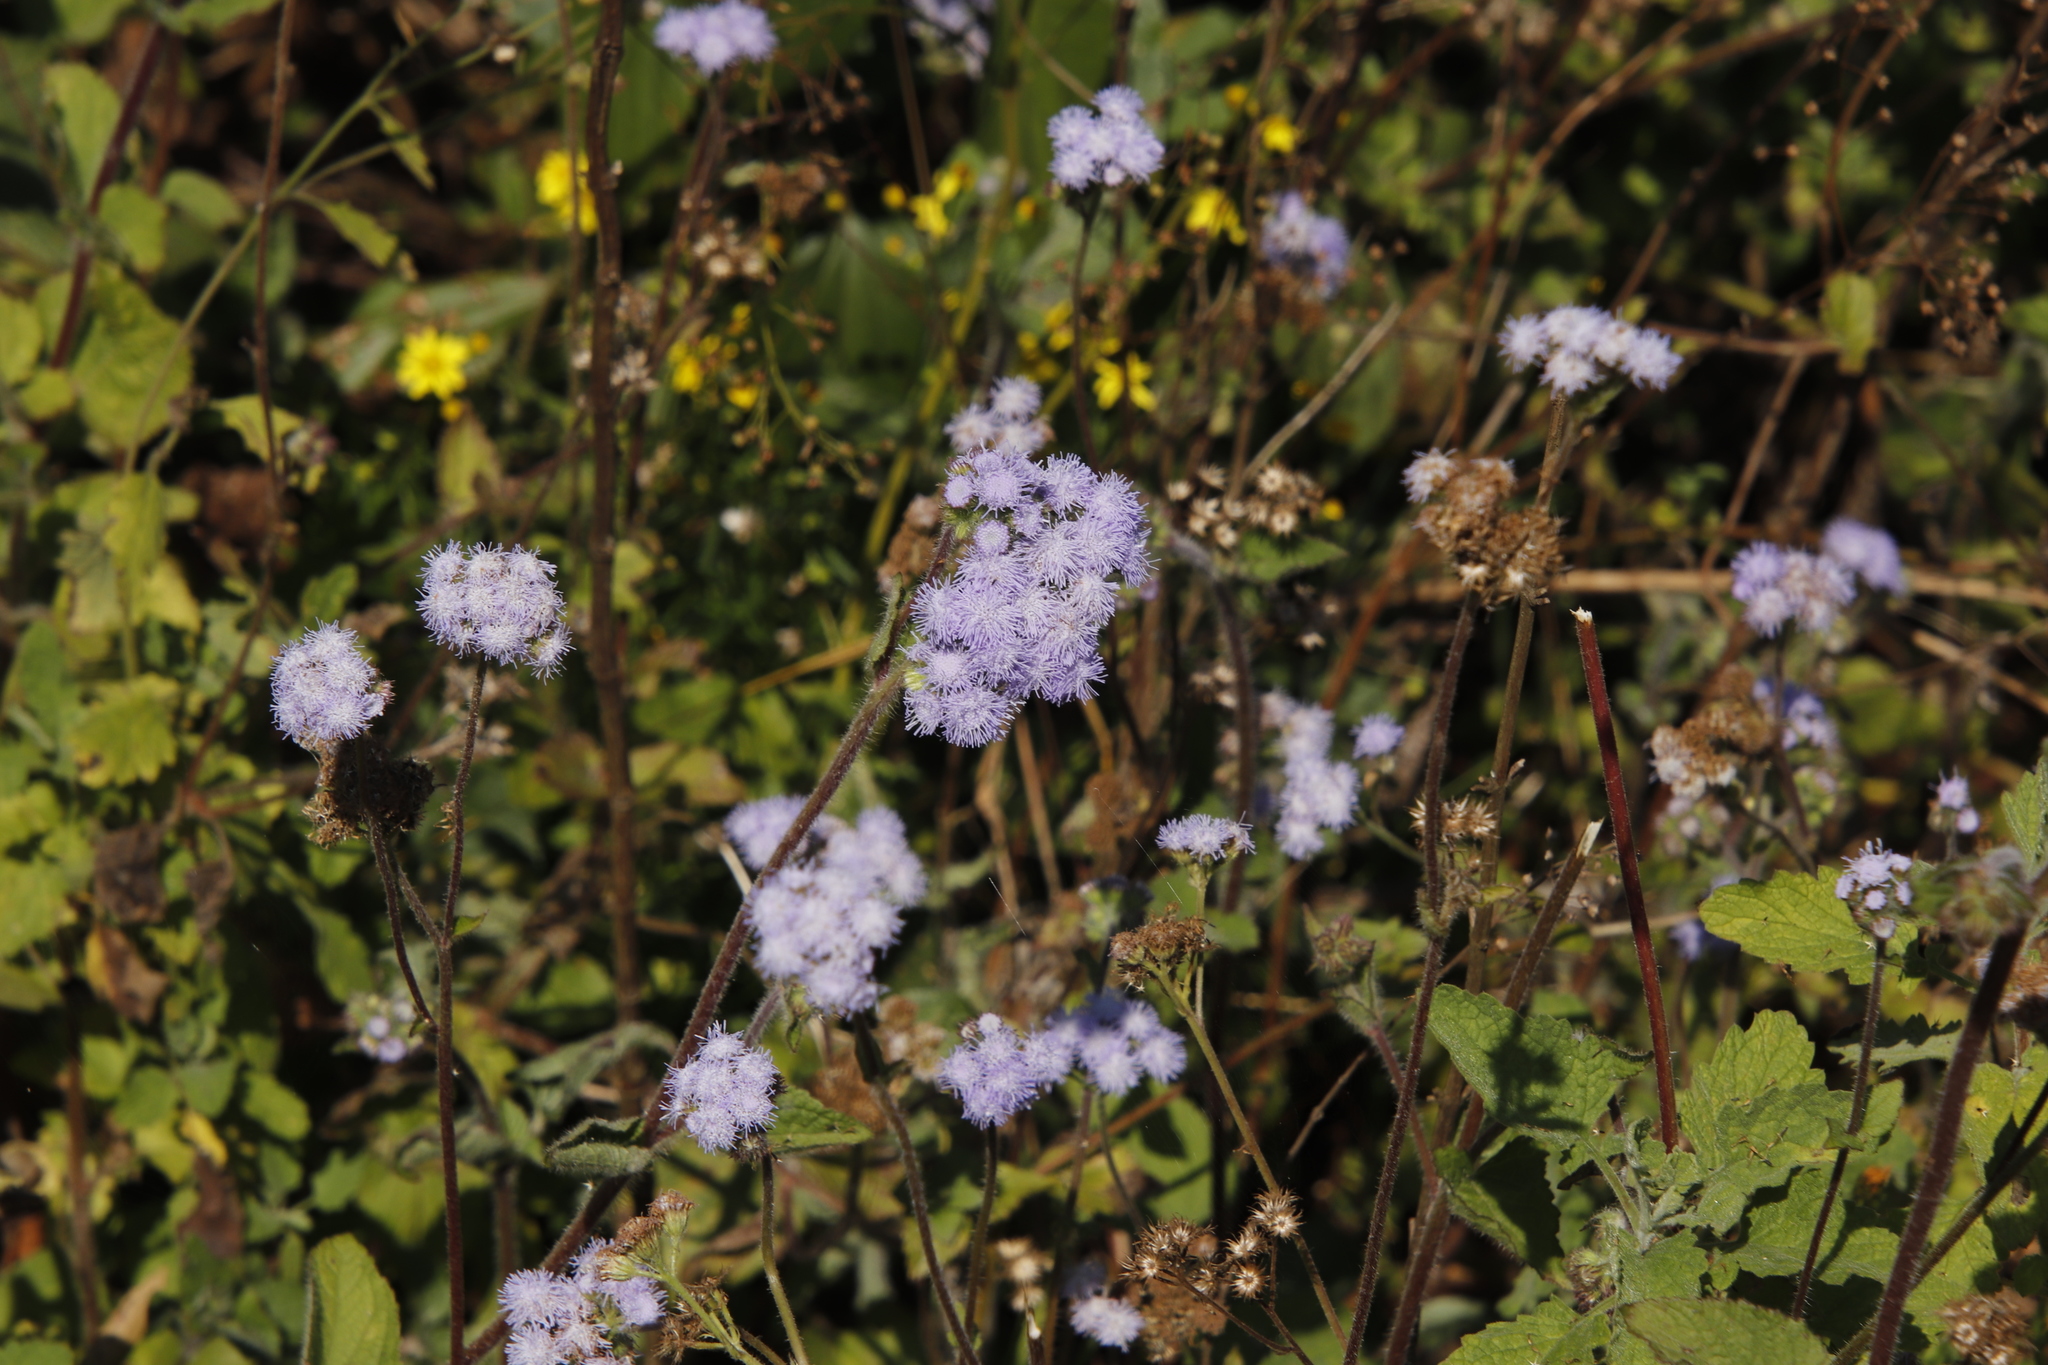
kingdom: Plantae
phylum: Tracheophyta
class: Magnoliopsida
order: Asterales
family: Asteraceae
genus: Ageratum
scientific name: Ageratum houstonianum
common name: Bluemink
